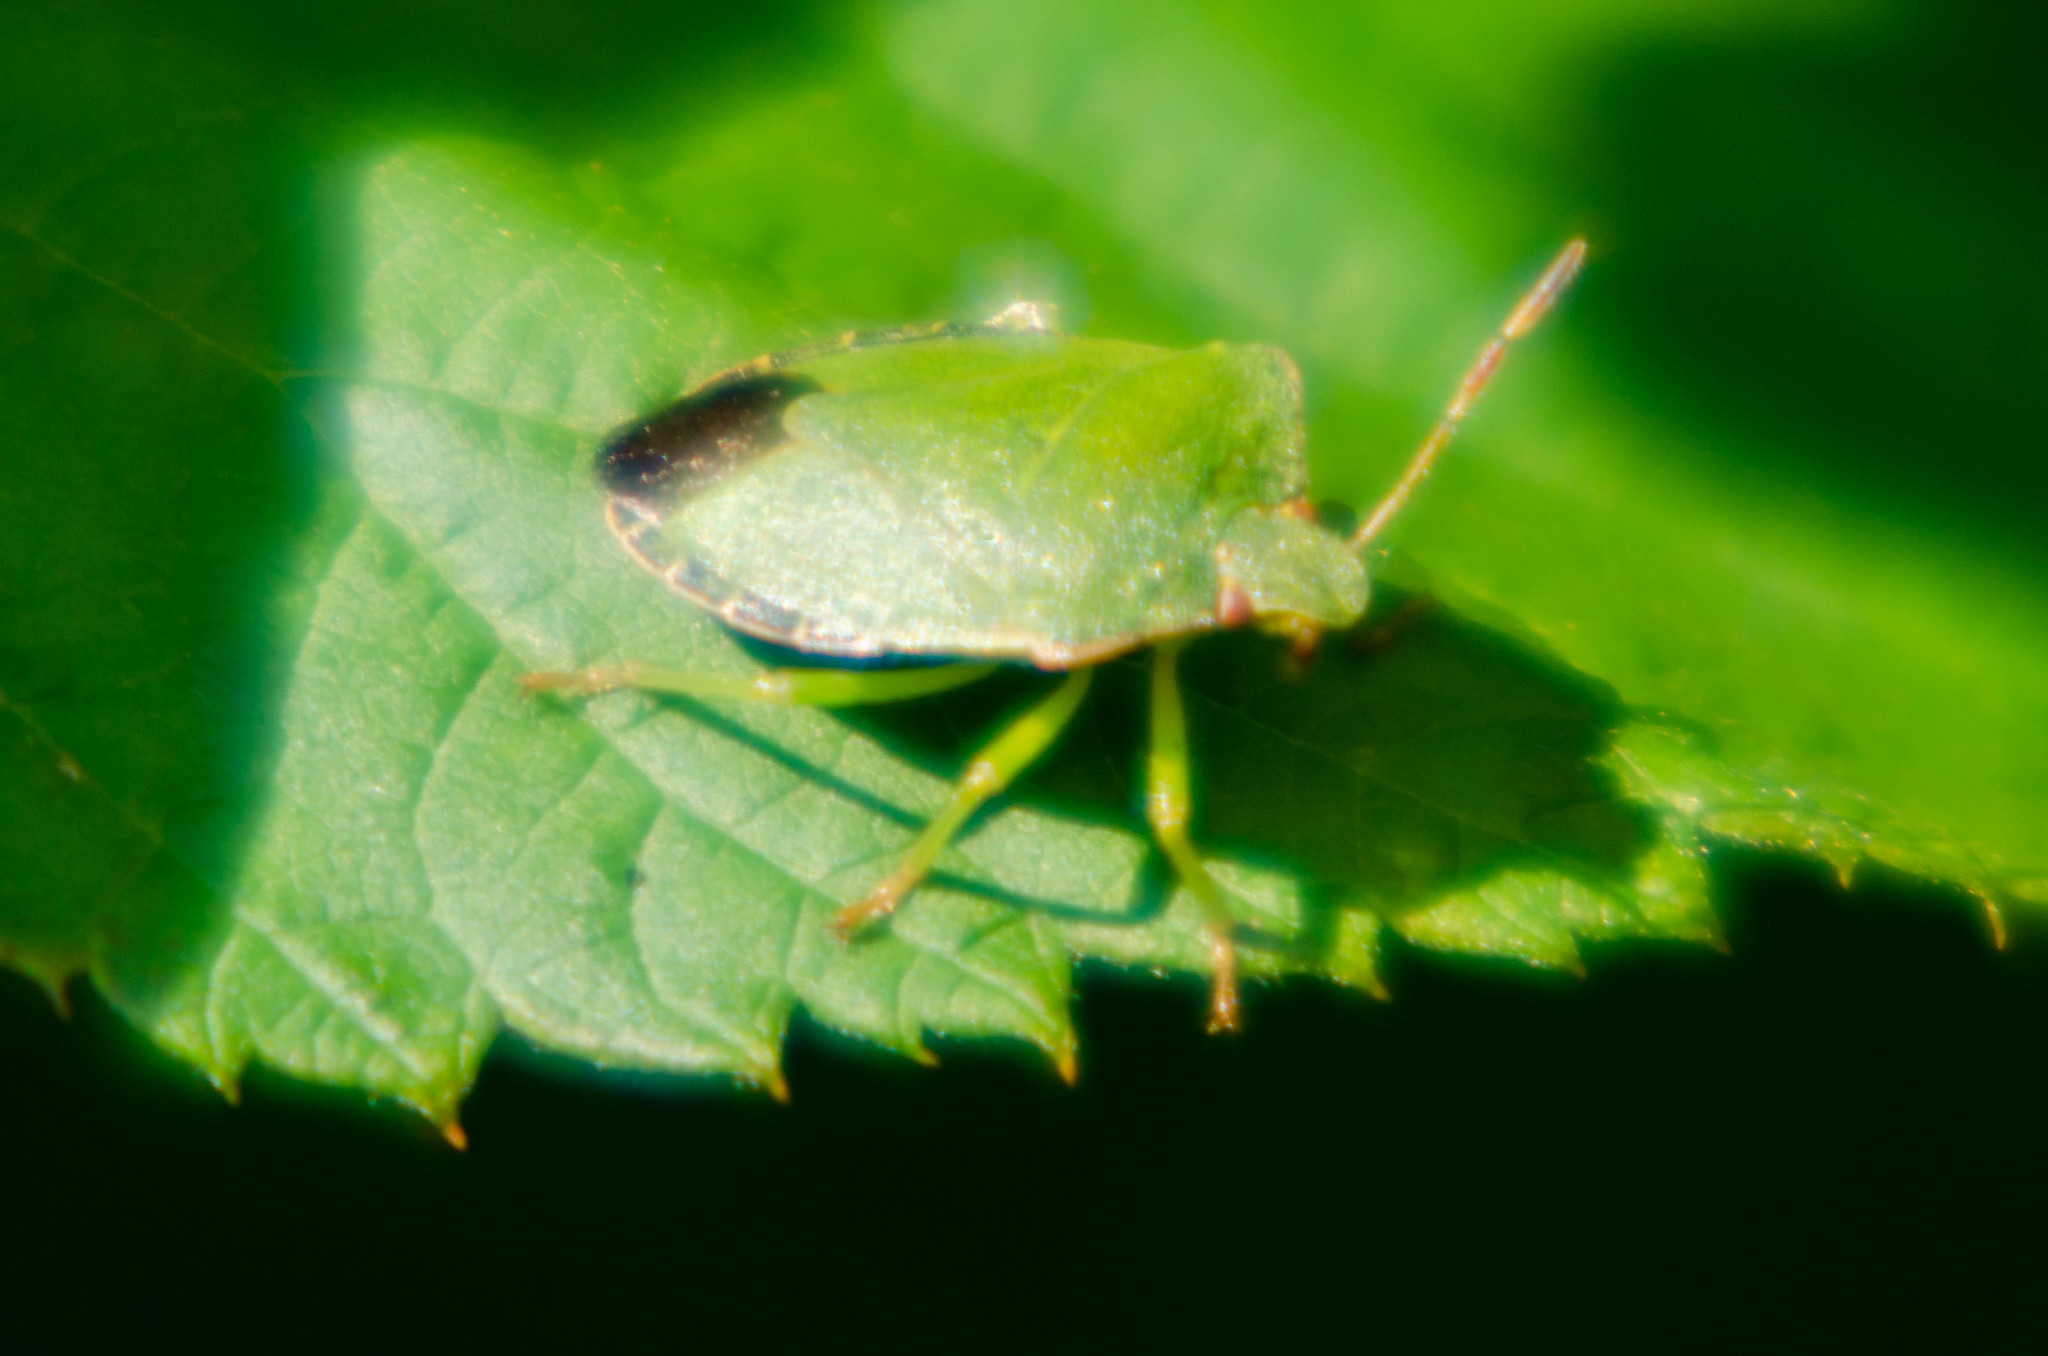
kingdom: Animalia
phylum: Arthropoda
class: Insecta
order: Hemiptera
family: Pentatomidae
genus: Palomena
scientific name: Palomena prasina
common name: Green shieldbug
